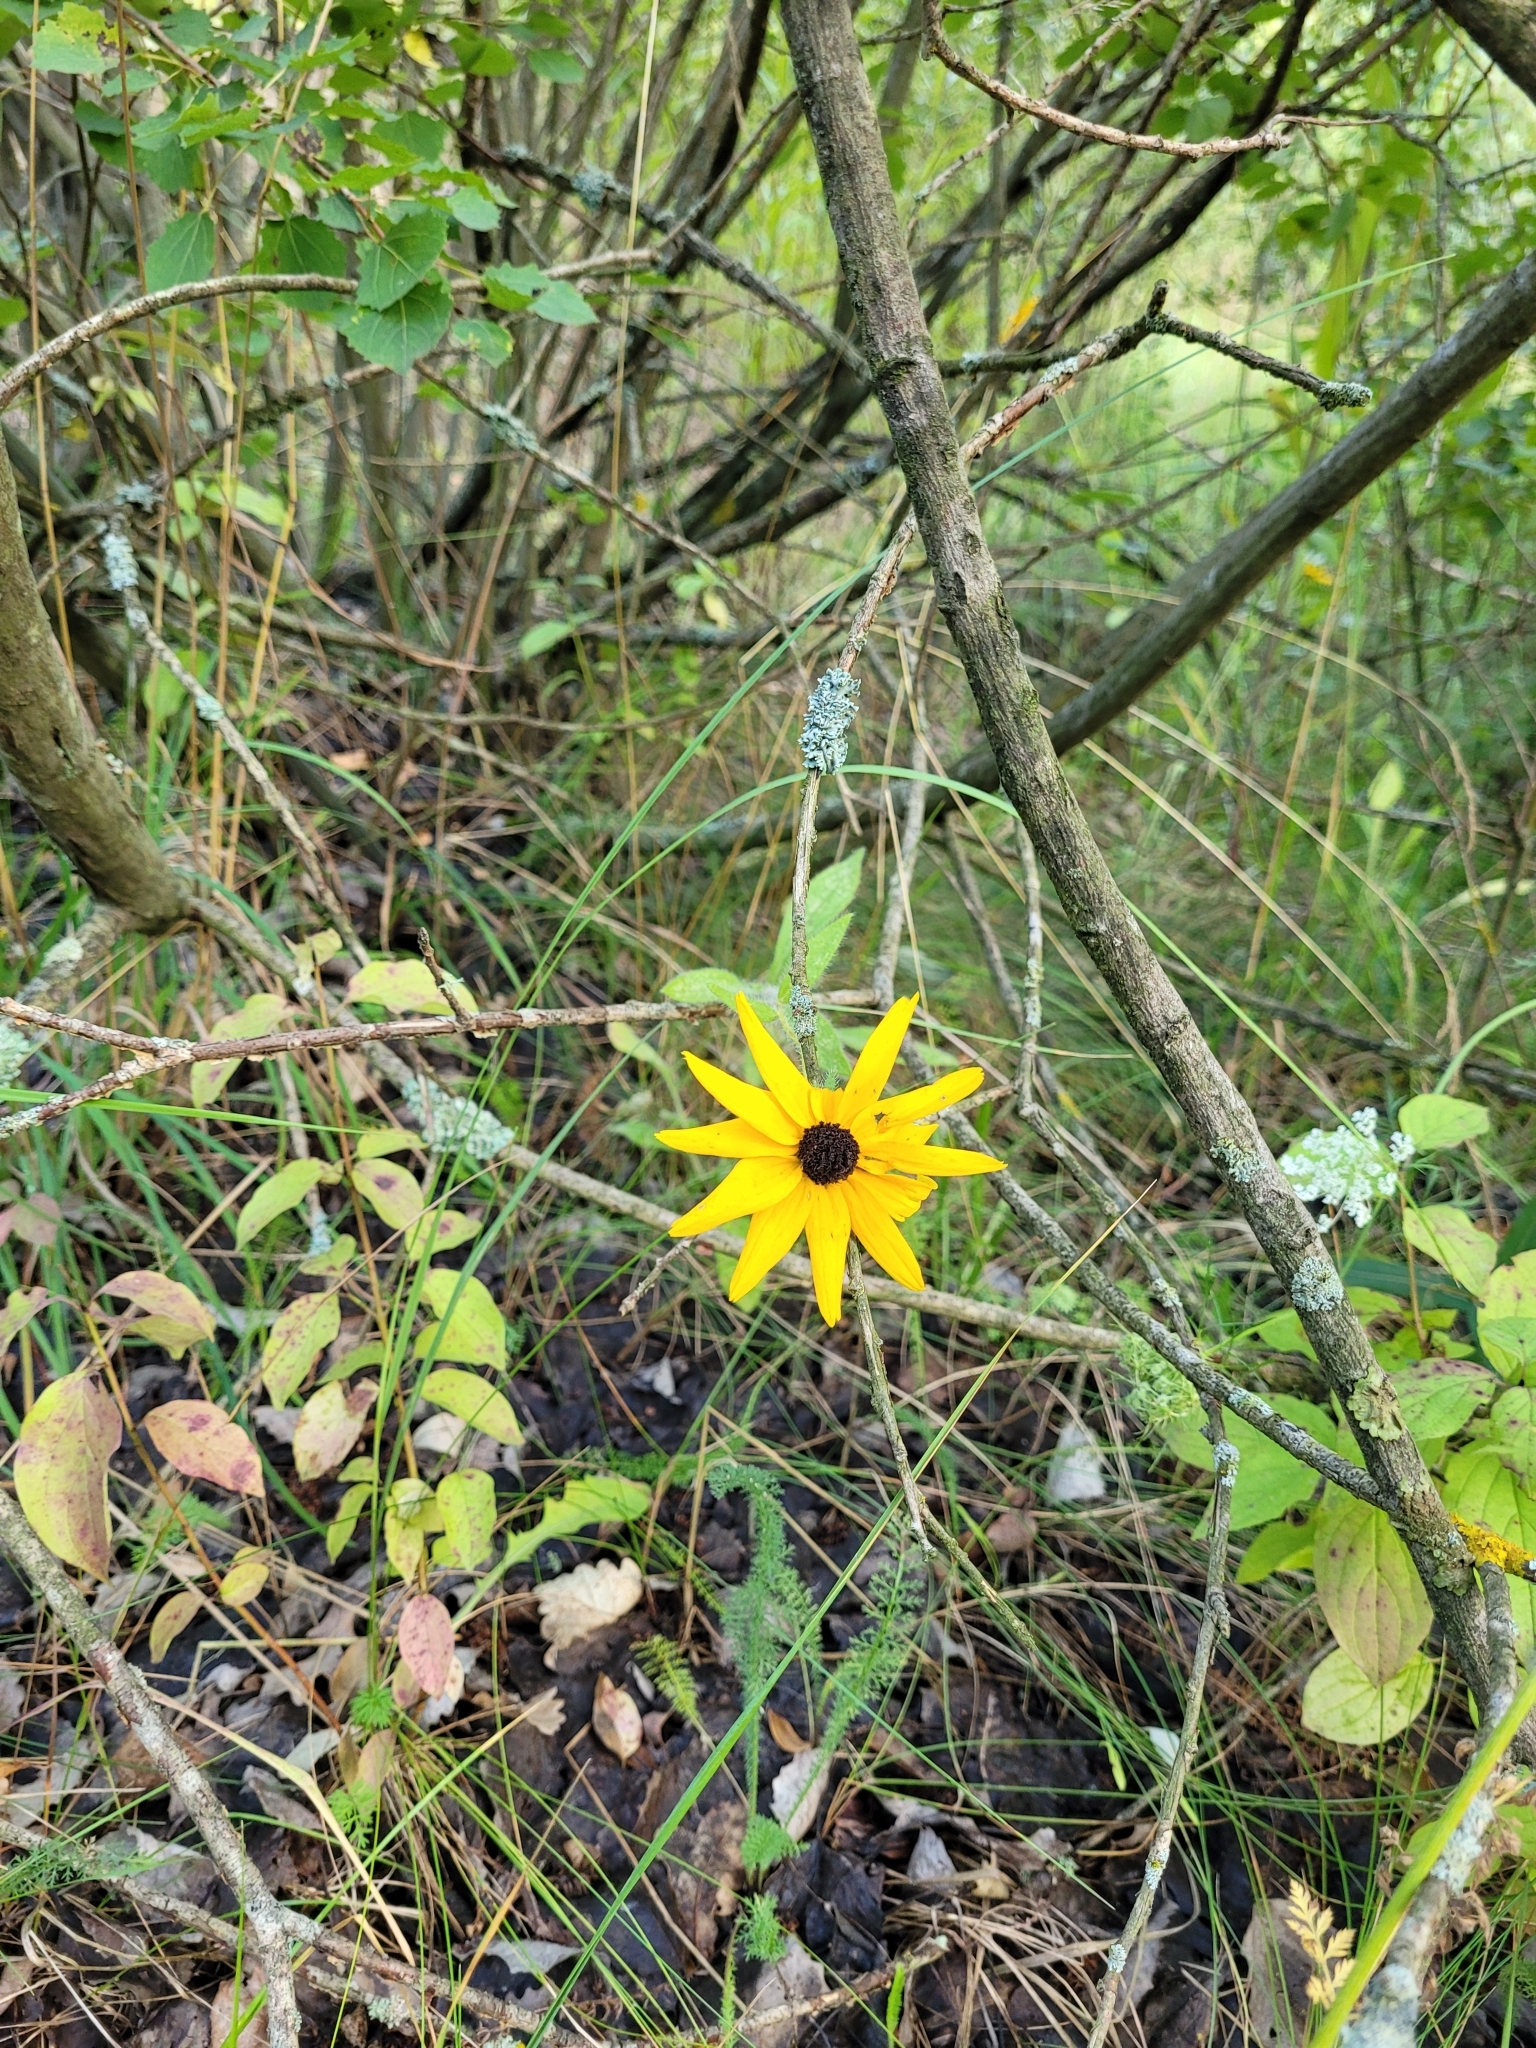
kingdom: Plantae
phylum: Tracheophyta
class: Magnoliopsida
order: Asterales
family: Asteraceae
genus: Rudbeckia
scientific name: Rudbeckia hirta
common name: Black-eyed-susan
